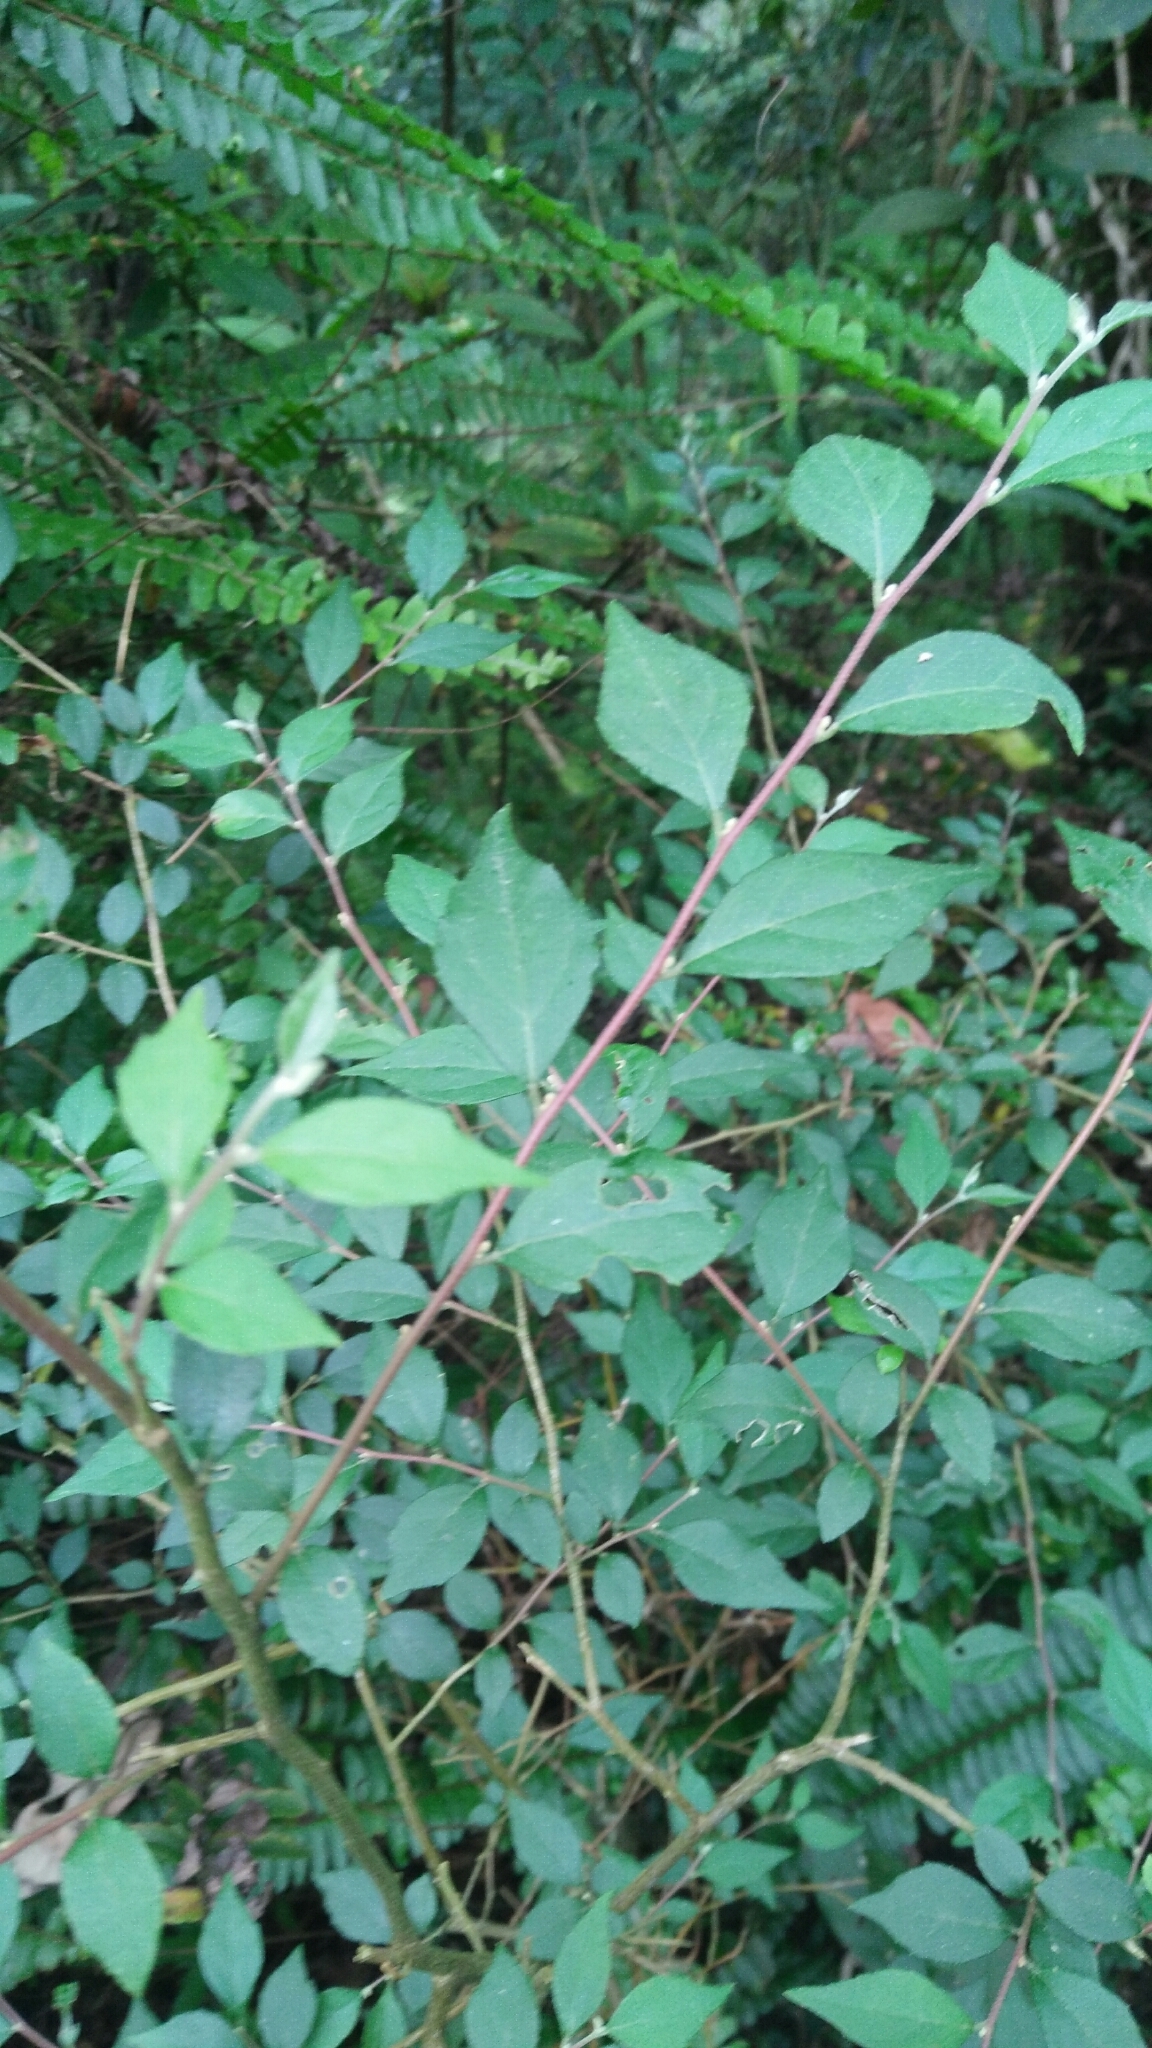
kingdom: Plantae
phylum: Tracheophyta
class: Magnoliopsida
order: Ericales
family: Styracaceae
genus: Styrax
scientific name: Styrax formosanus
